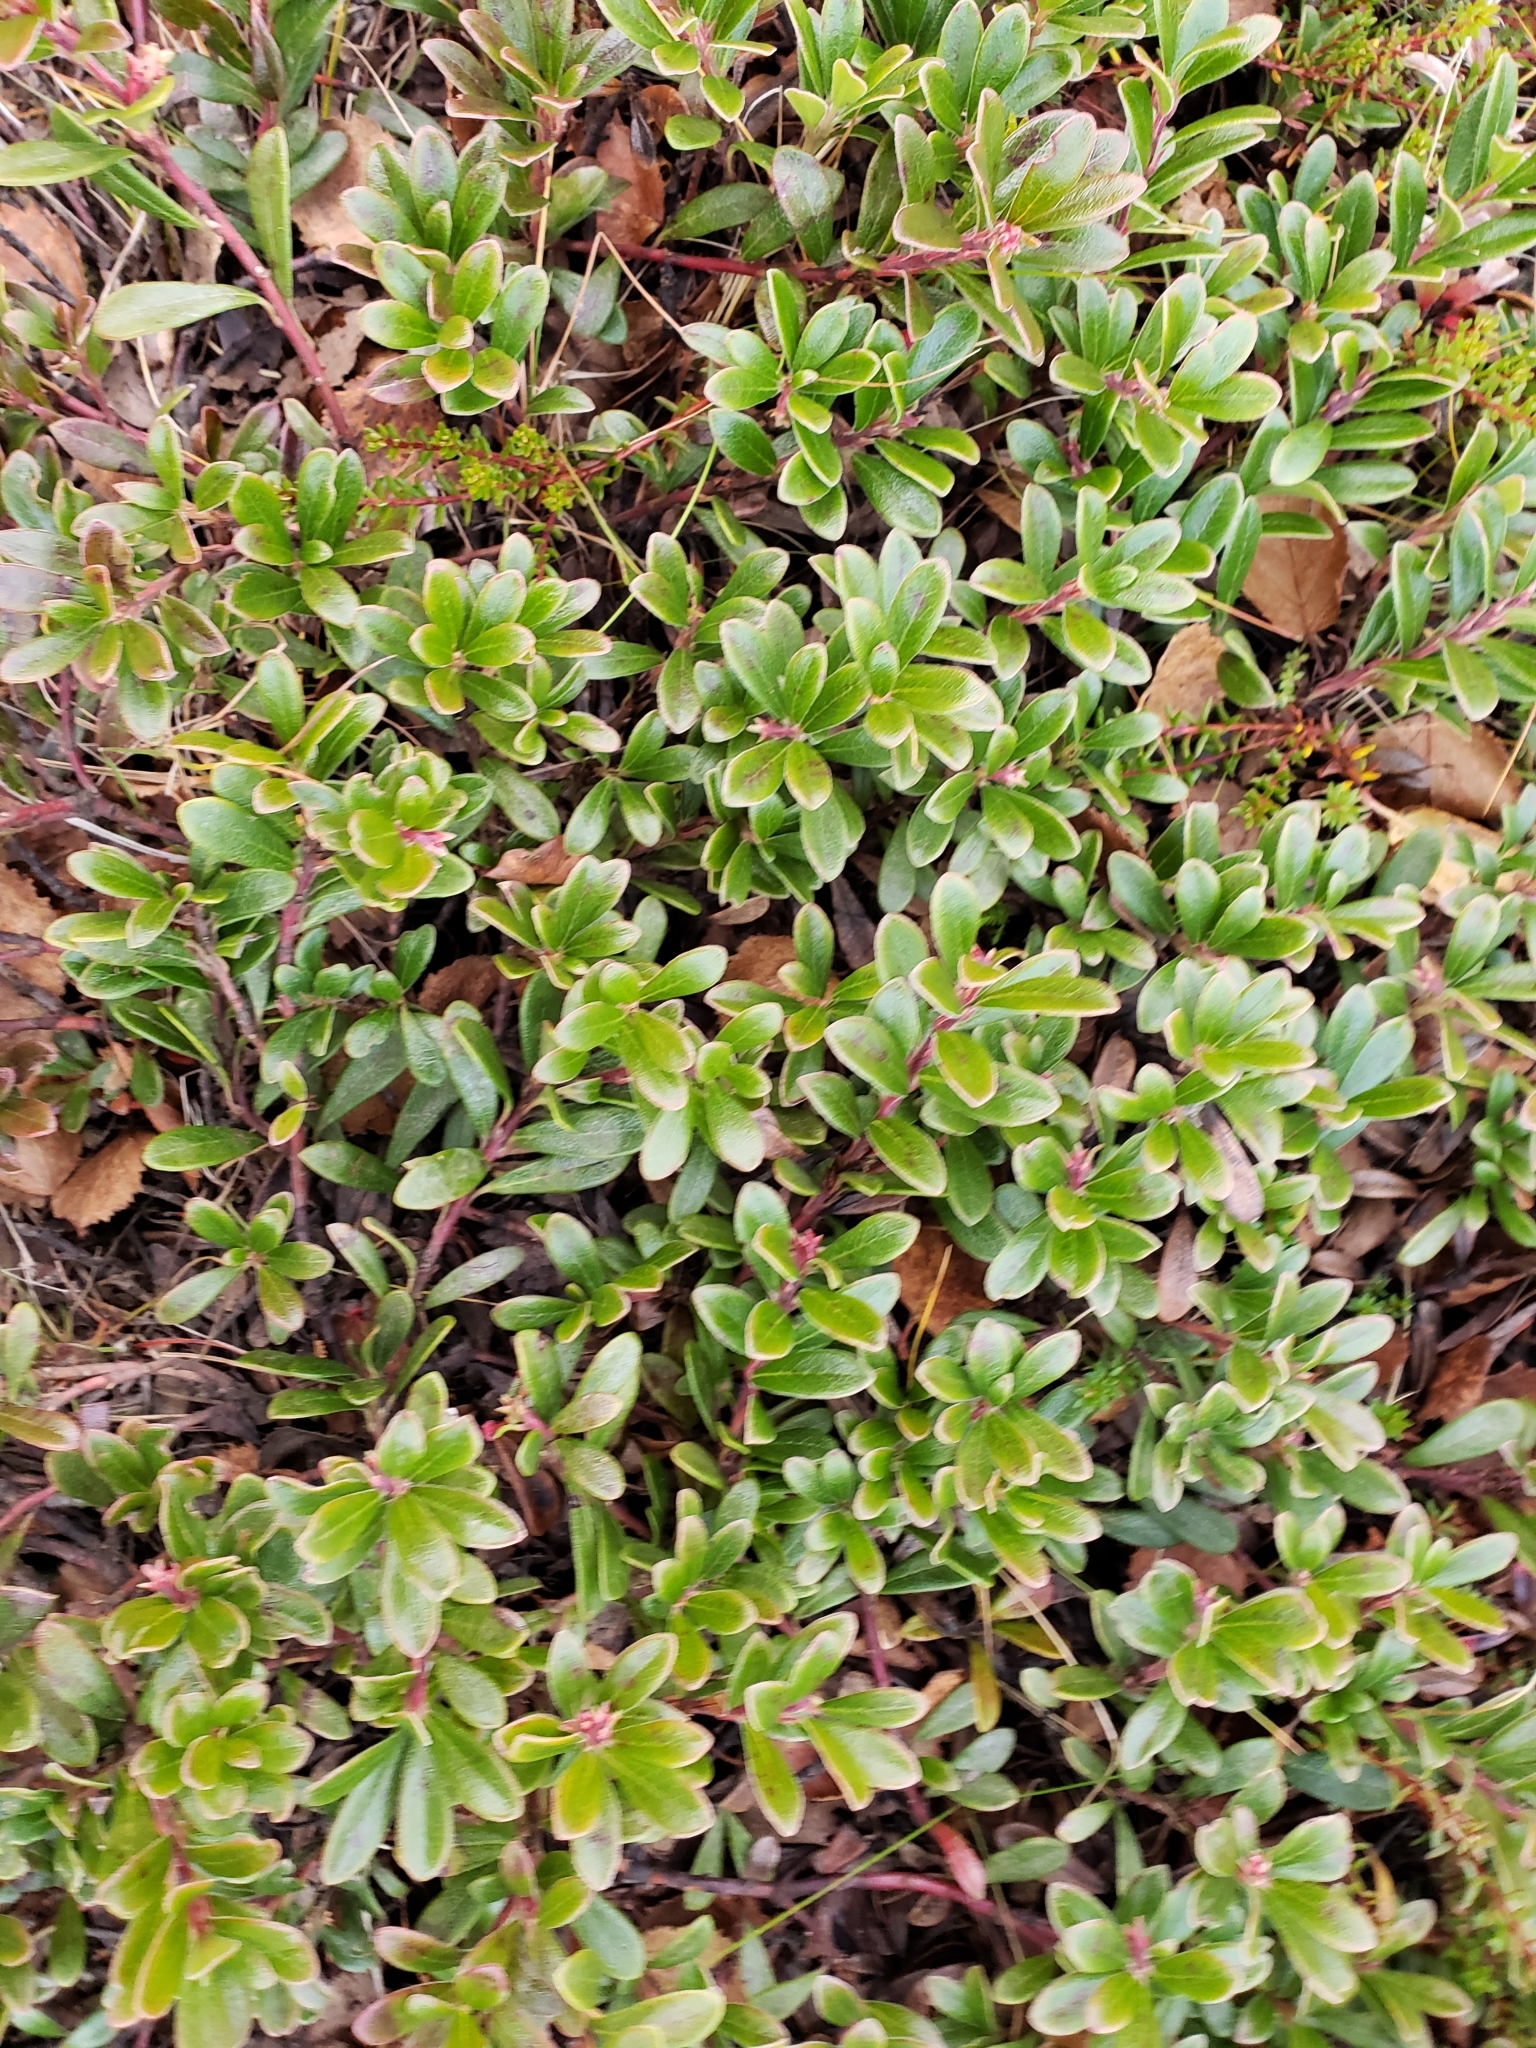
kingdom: Plantae
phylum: Tracheophyta
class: Magnoliopsida
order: Ericales
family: Ericaceae
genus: Arctostaphylos
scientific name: Arctostaphylos uva-ursi
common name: Bearberry
